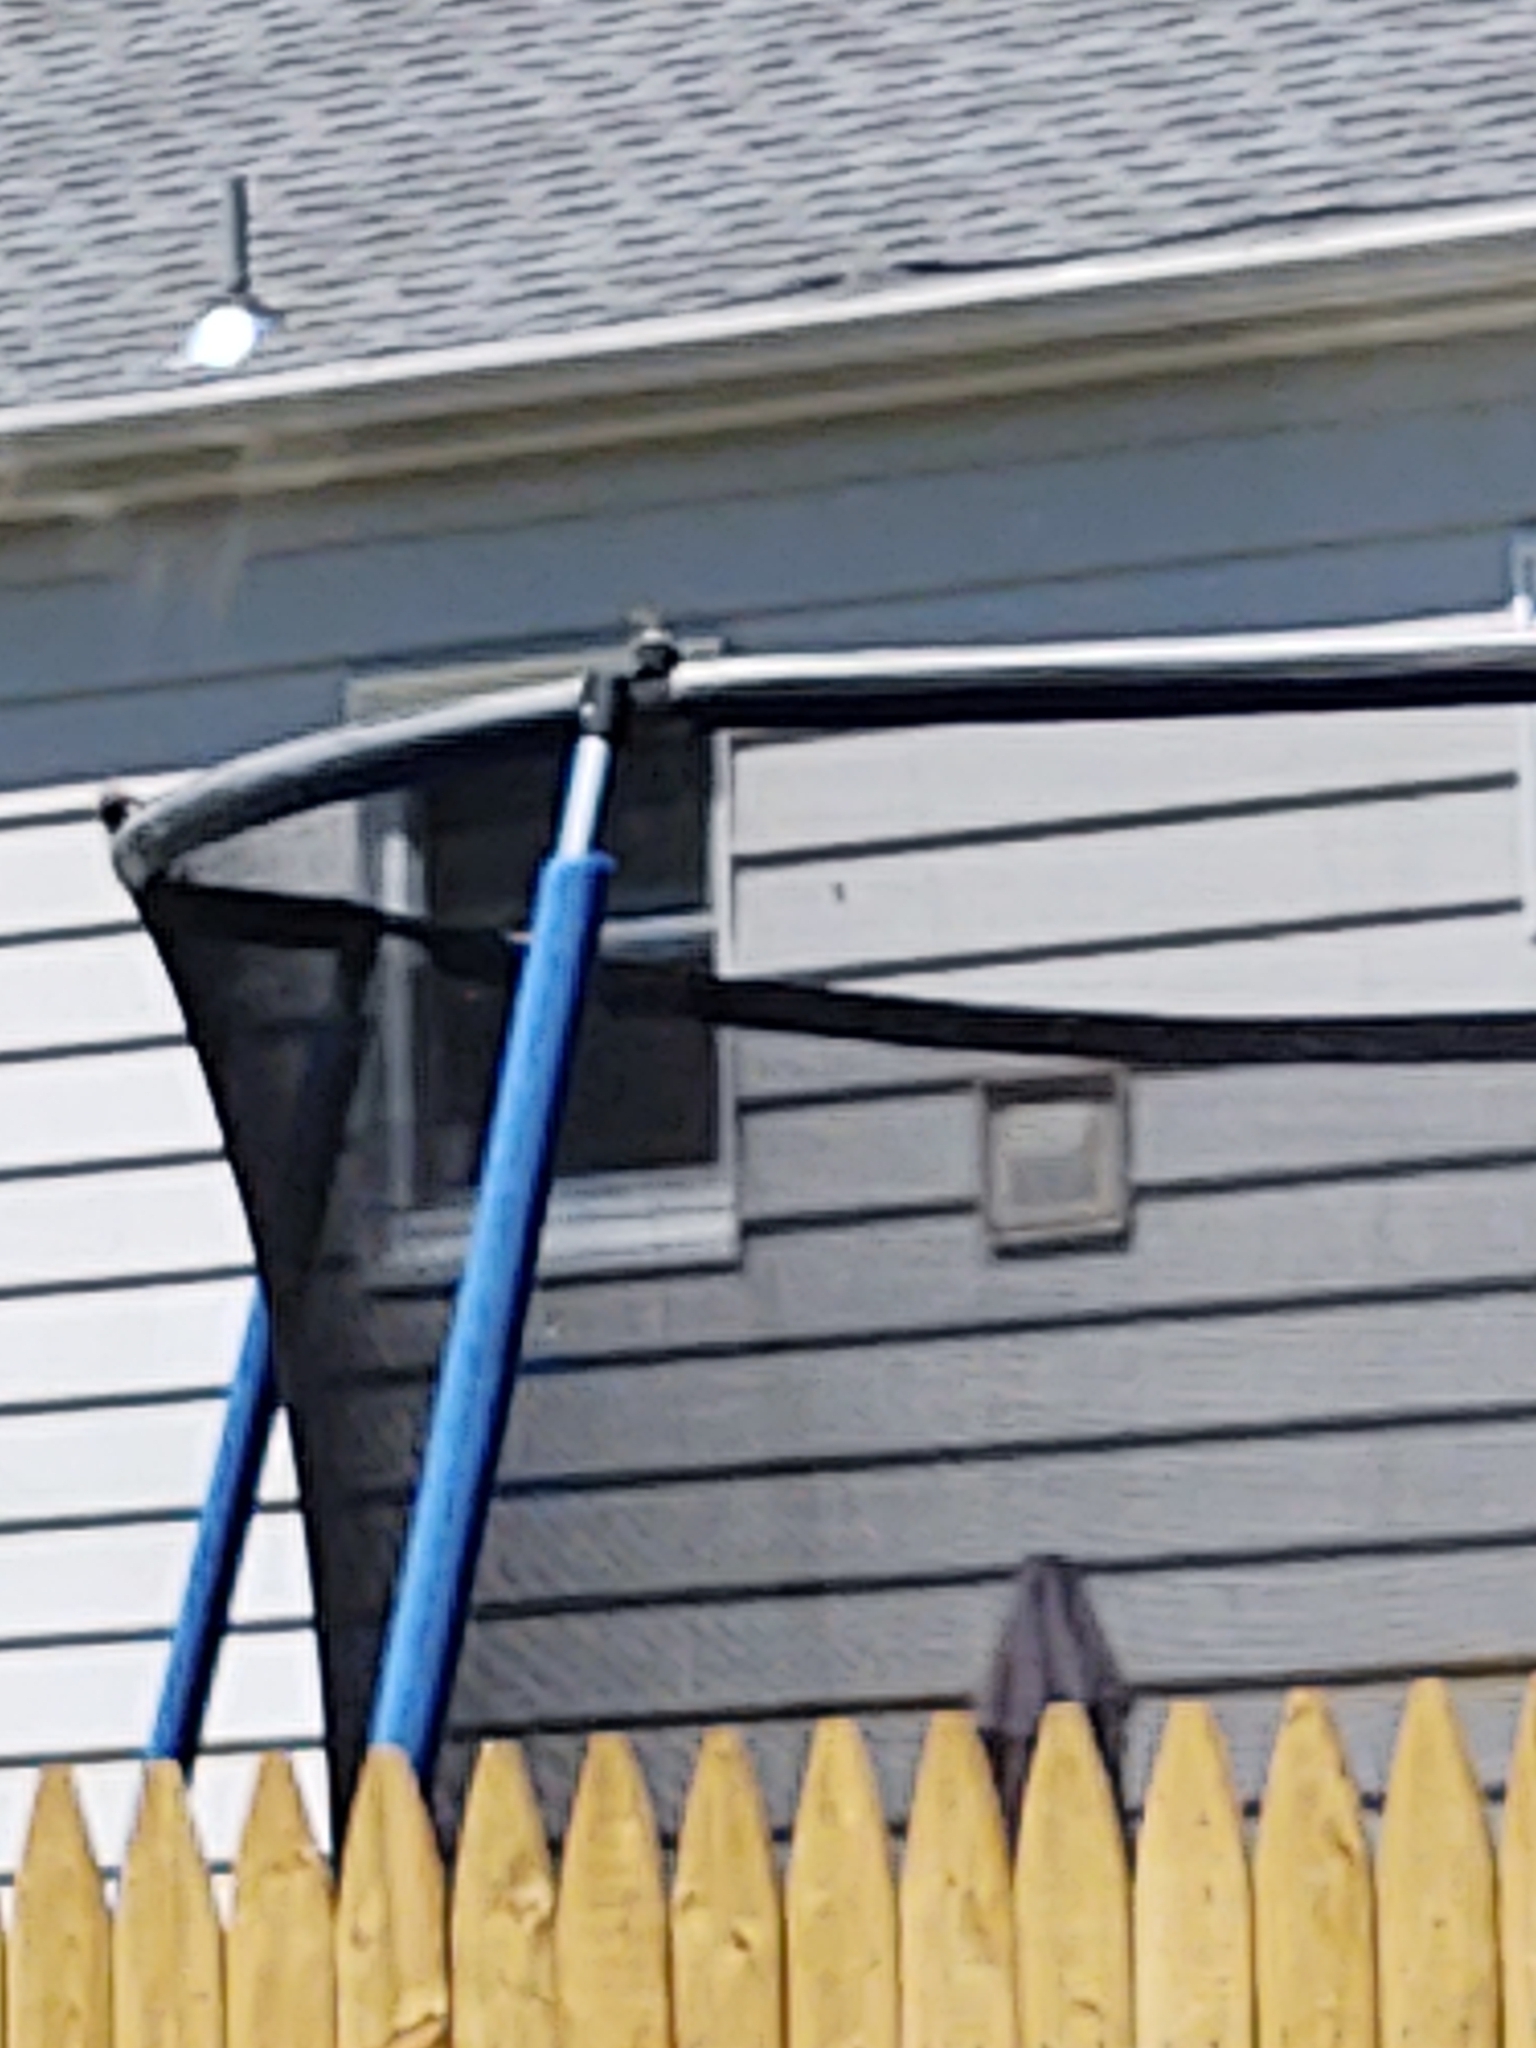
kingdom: Animalia
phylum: Chordata
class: Aves
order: Passeriformes
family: Troglodytidae
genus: Troglodytes
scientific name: Troglodytes aedon
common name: House wren
